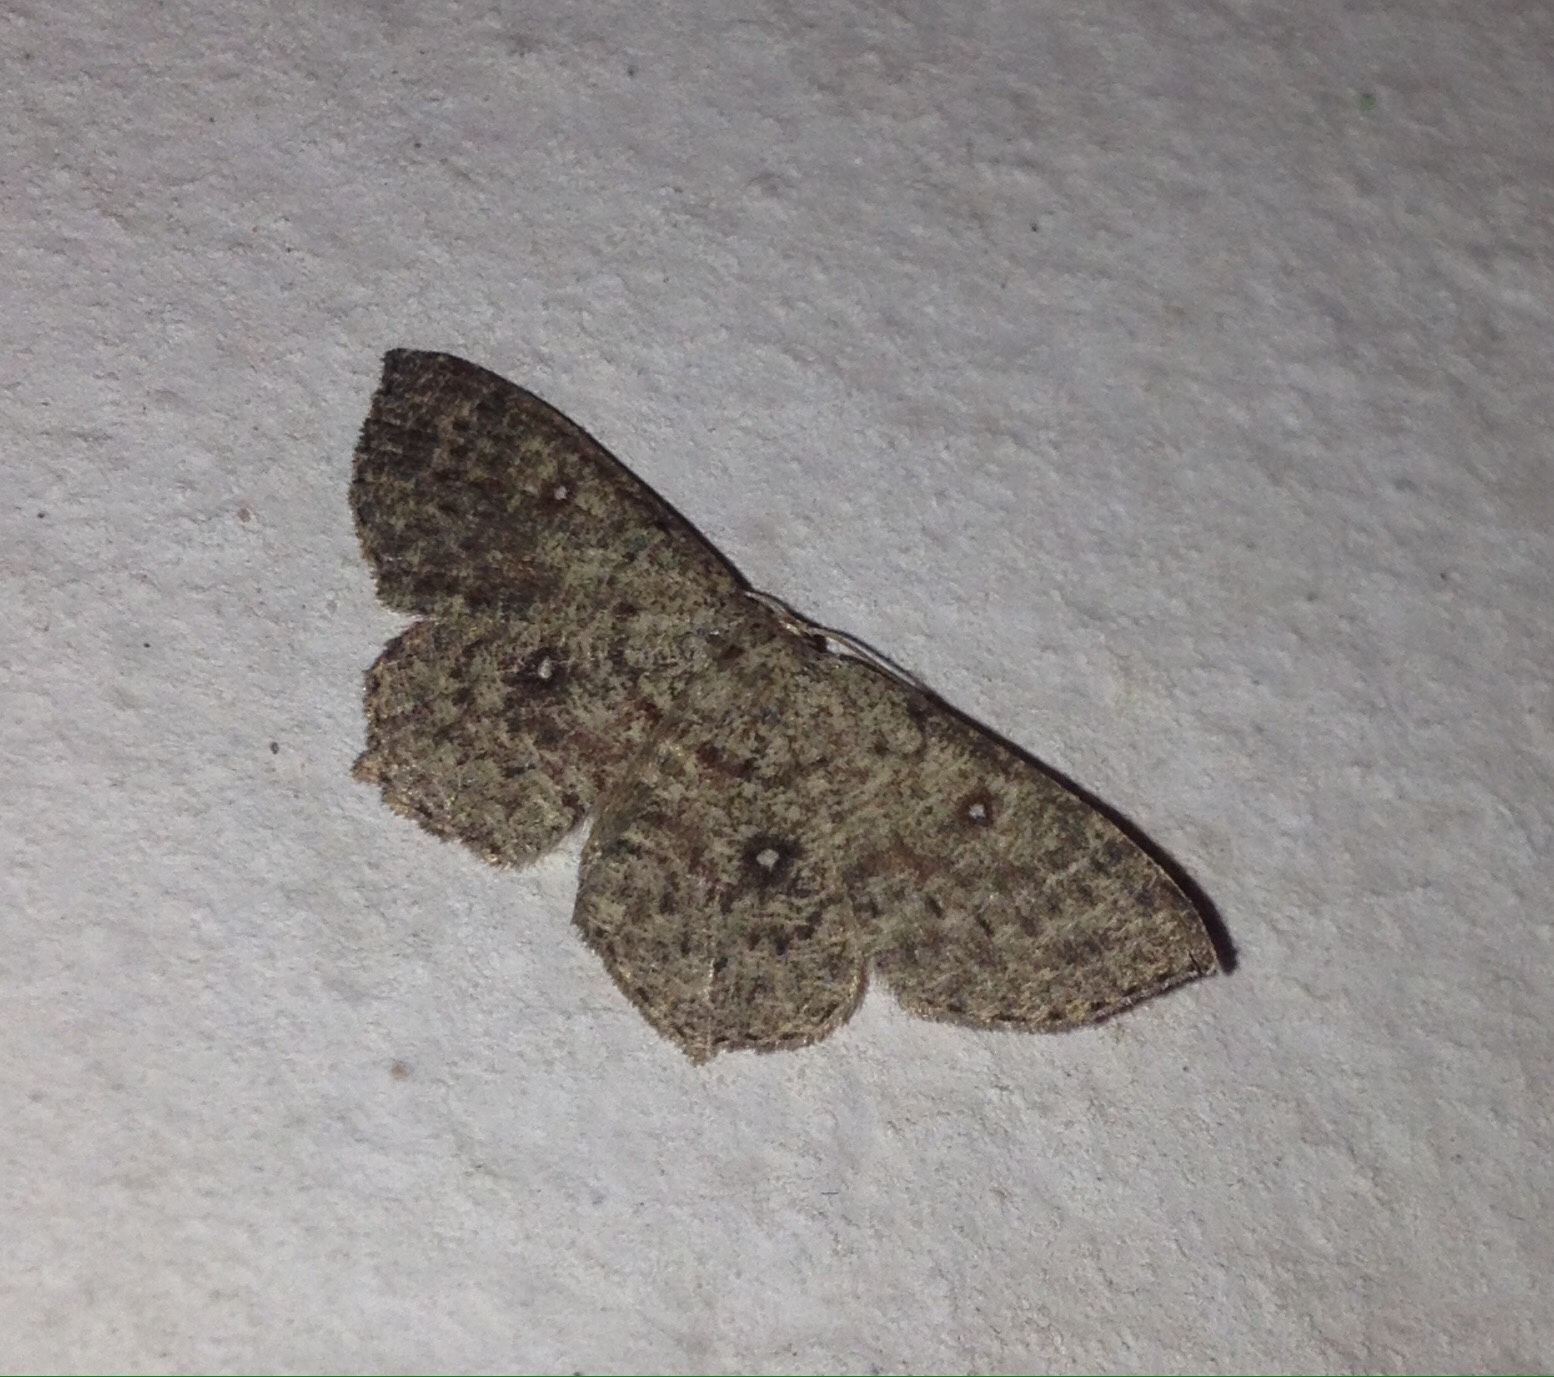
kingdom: Animalia
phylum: Arthropoda
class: Insecta
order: Lepidoptera
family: Geometridae
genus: Cyclophora
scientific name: Cyclophora pendularia
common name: Dingy mocha
